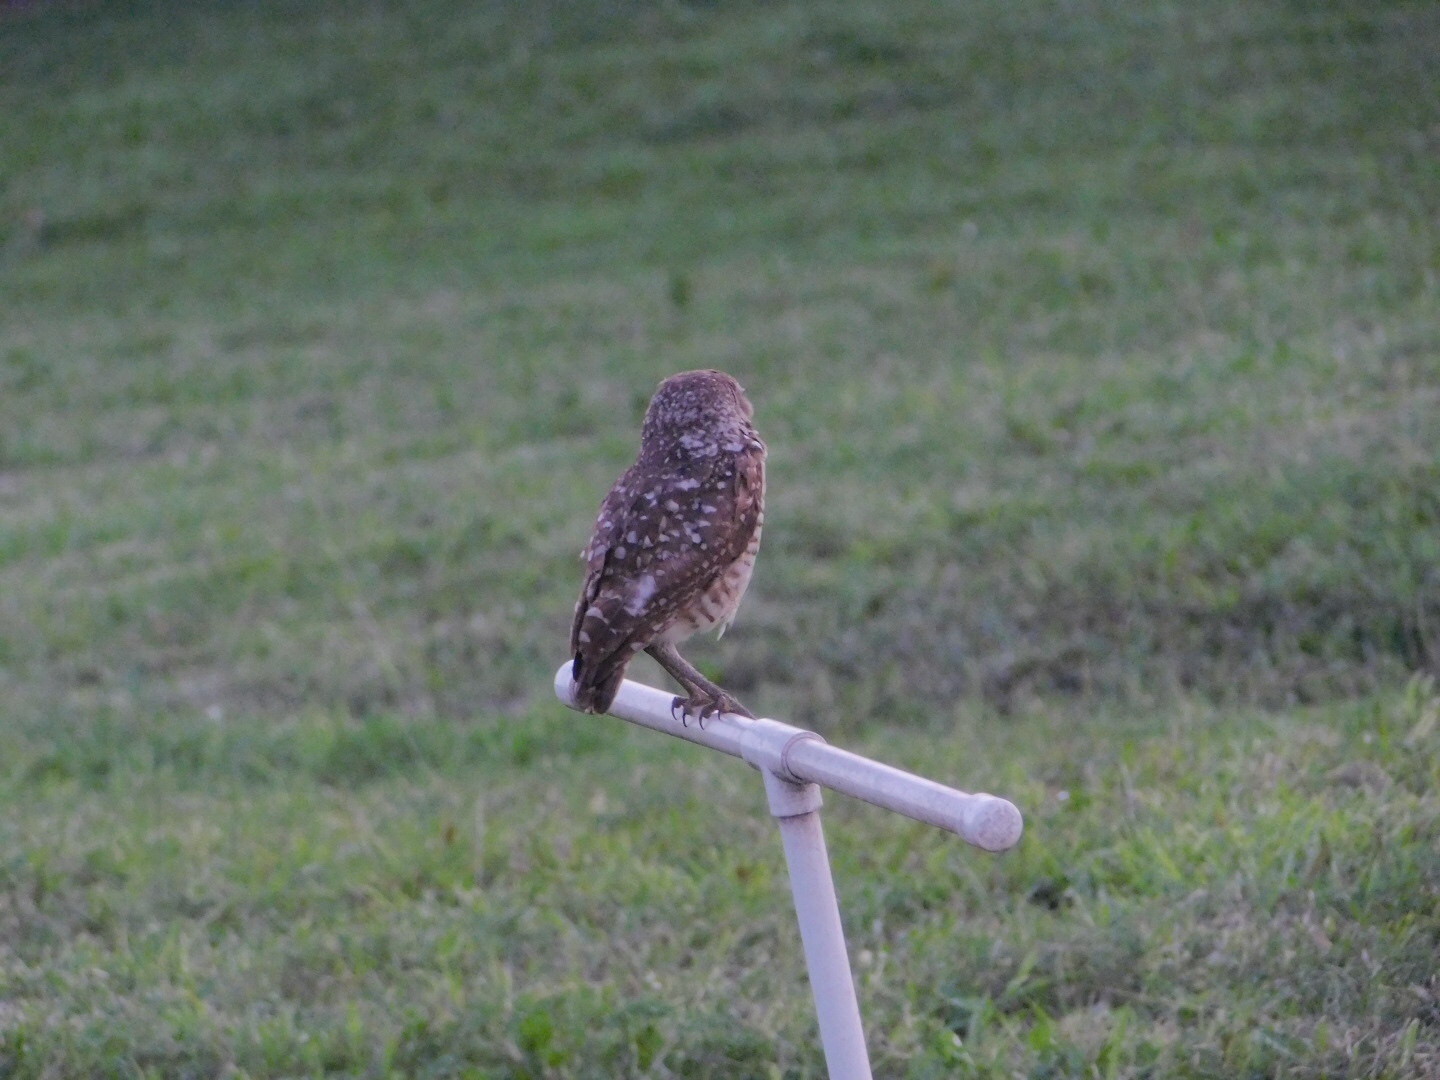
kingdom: Animalia
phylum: Chordata
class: Aves
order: Strigiformes
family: Strigidae
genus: Athene
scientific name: Athene cunicularia
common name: Burrowing owl
